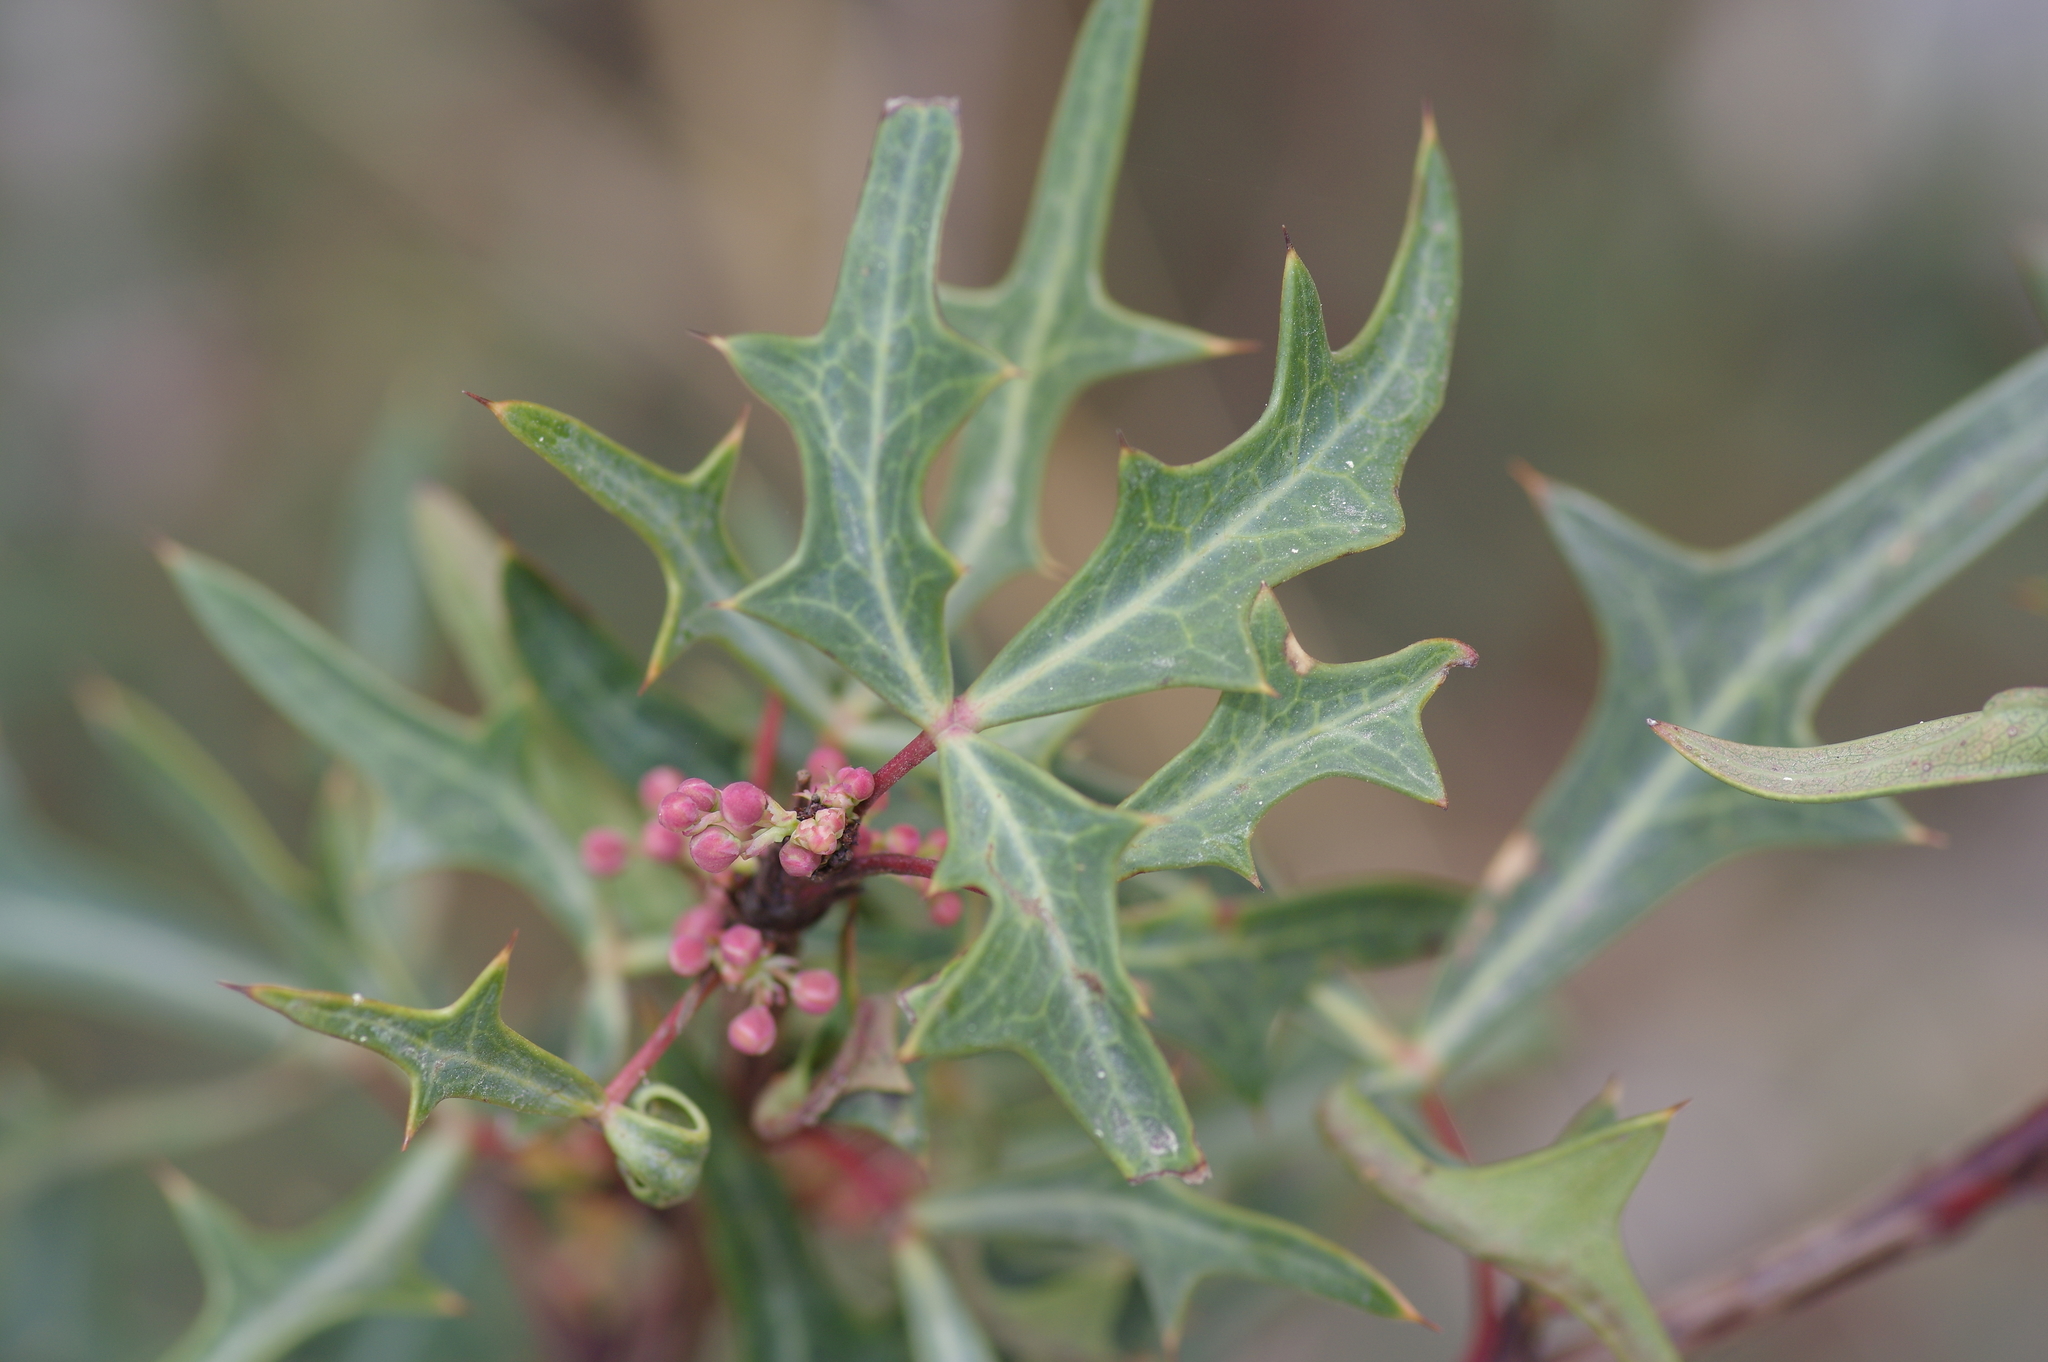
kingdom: Plantae
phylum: Tracheophyta
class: Magnoliopsida
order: Ranunculales
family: Berberidaceae
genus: Alloberberis
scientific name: Alloberberis trifoliolata
